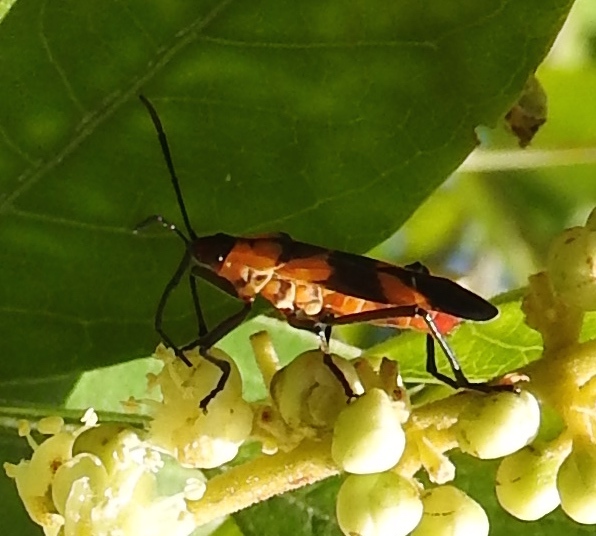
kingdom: Animalia
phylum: Arthropoda
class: Insecta
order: Hemiptera
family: Lygaeidae
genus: Oncopeltus
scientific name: Oncopeltus guttaloides
